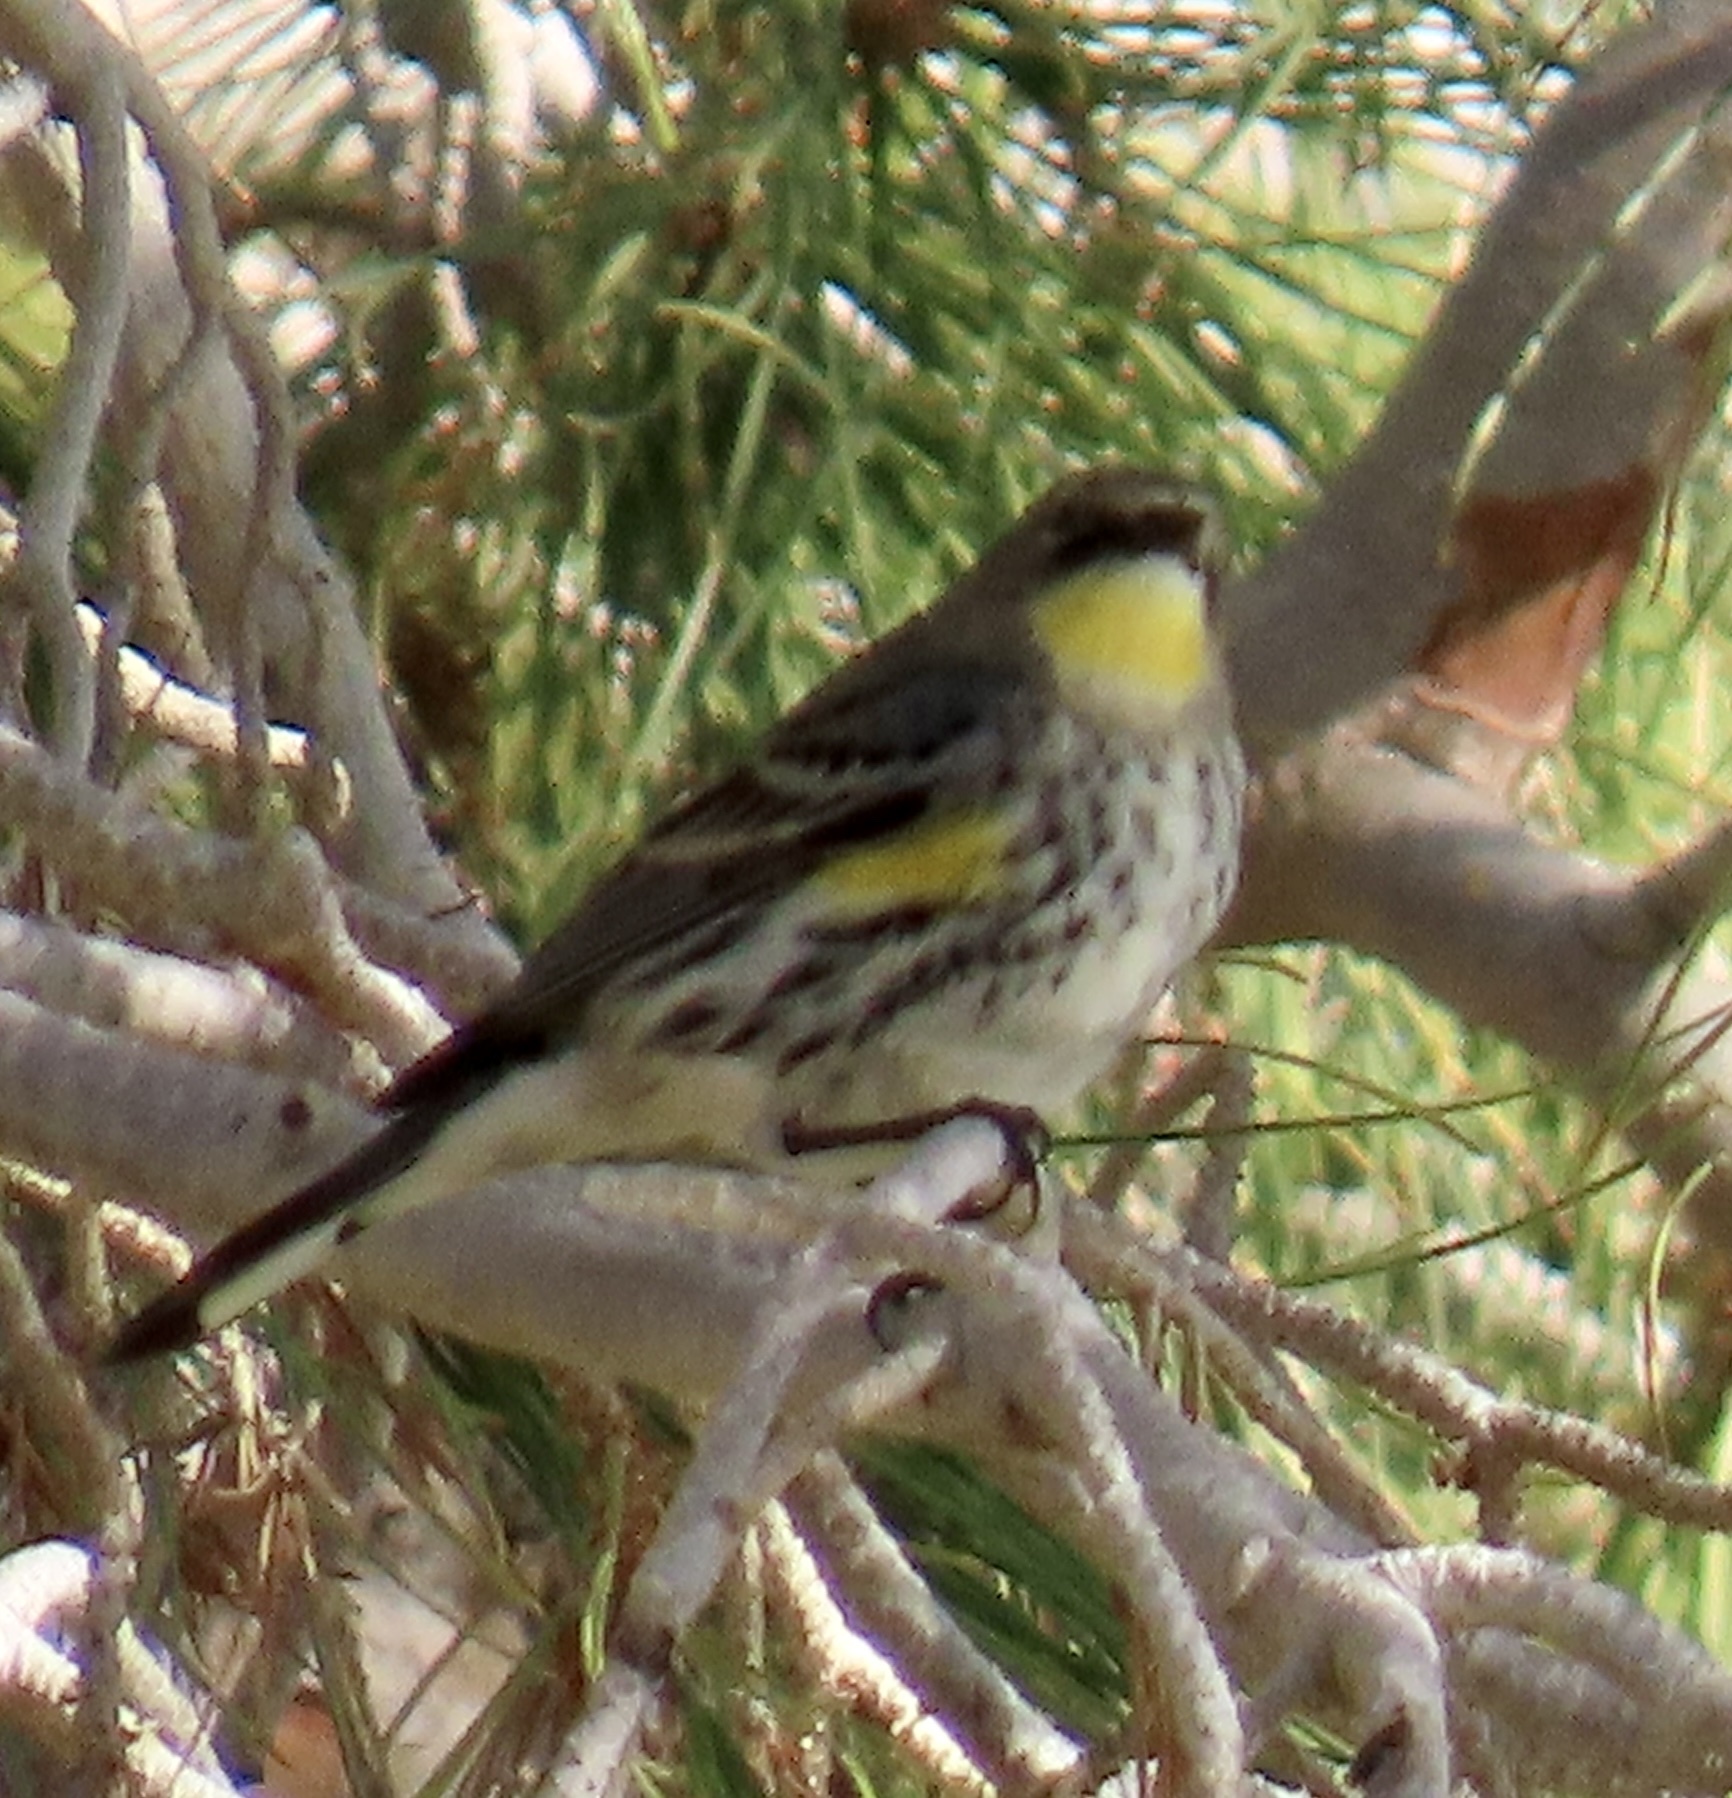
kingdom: Animalia
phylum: Chordata
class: Aves
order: Passeriformes
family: Parulidae
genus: Setophaga
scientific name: Setophaga auduboni
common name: Audubon's warbler
